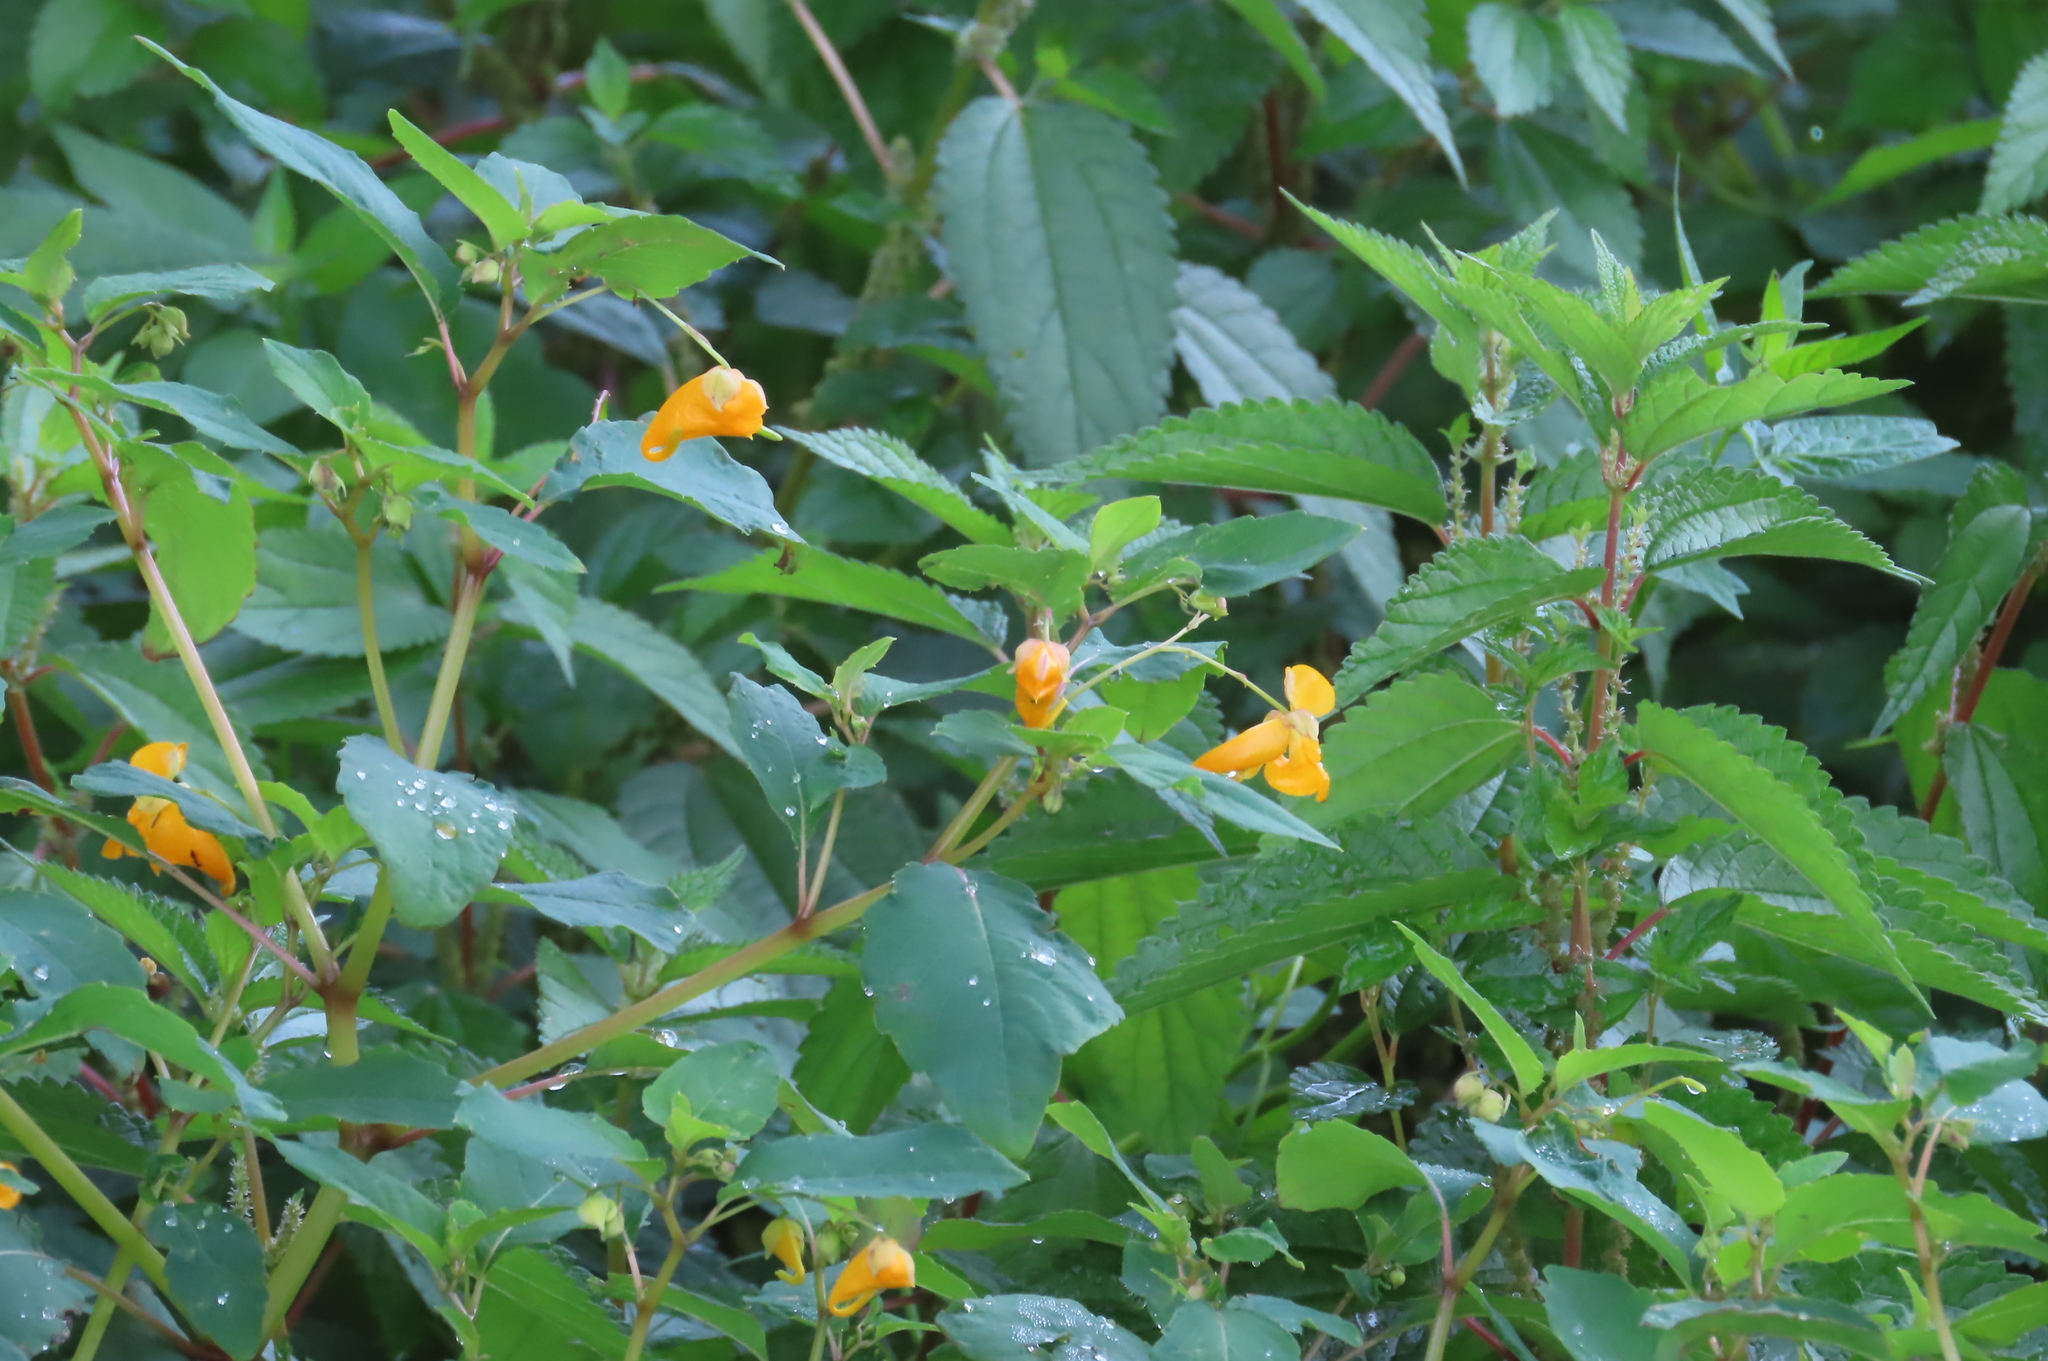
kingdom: Plantae
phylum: Tracheophyta
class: Magnoliopsida
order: Ericales
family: Balsaminaceae
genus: Impatiens
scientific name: Impatiens capensis
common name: Orange balsam
